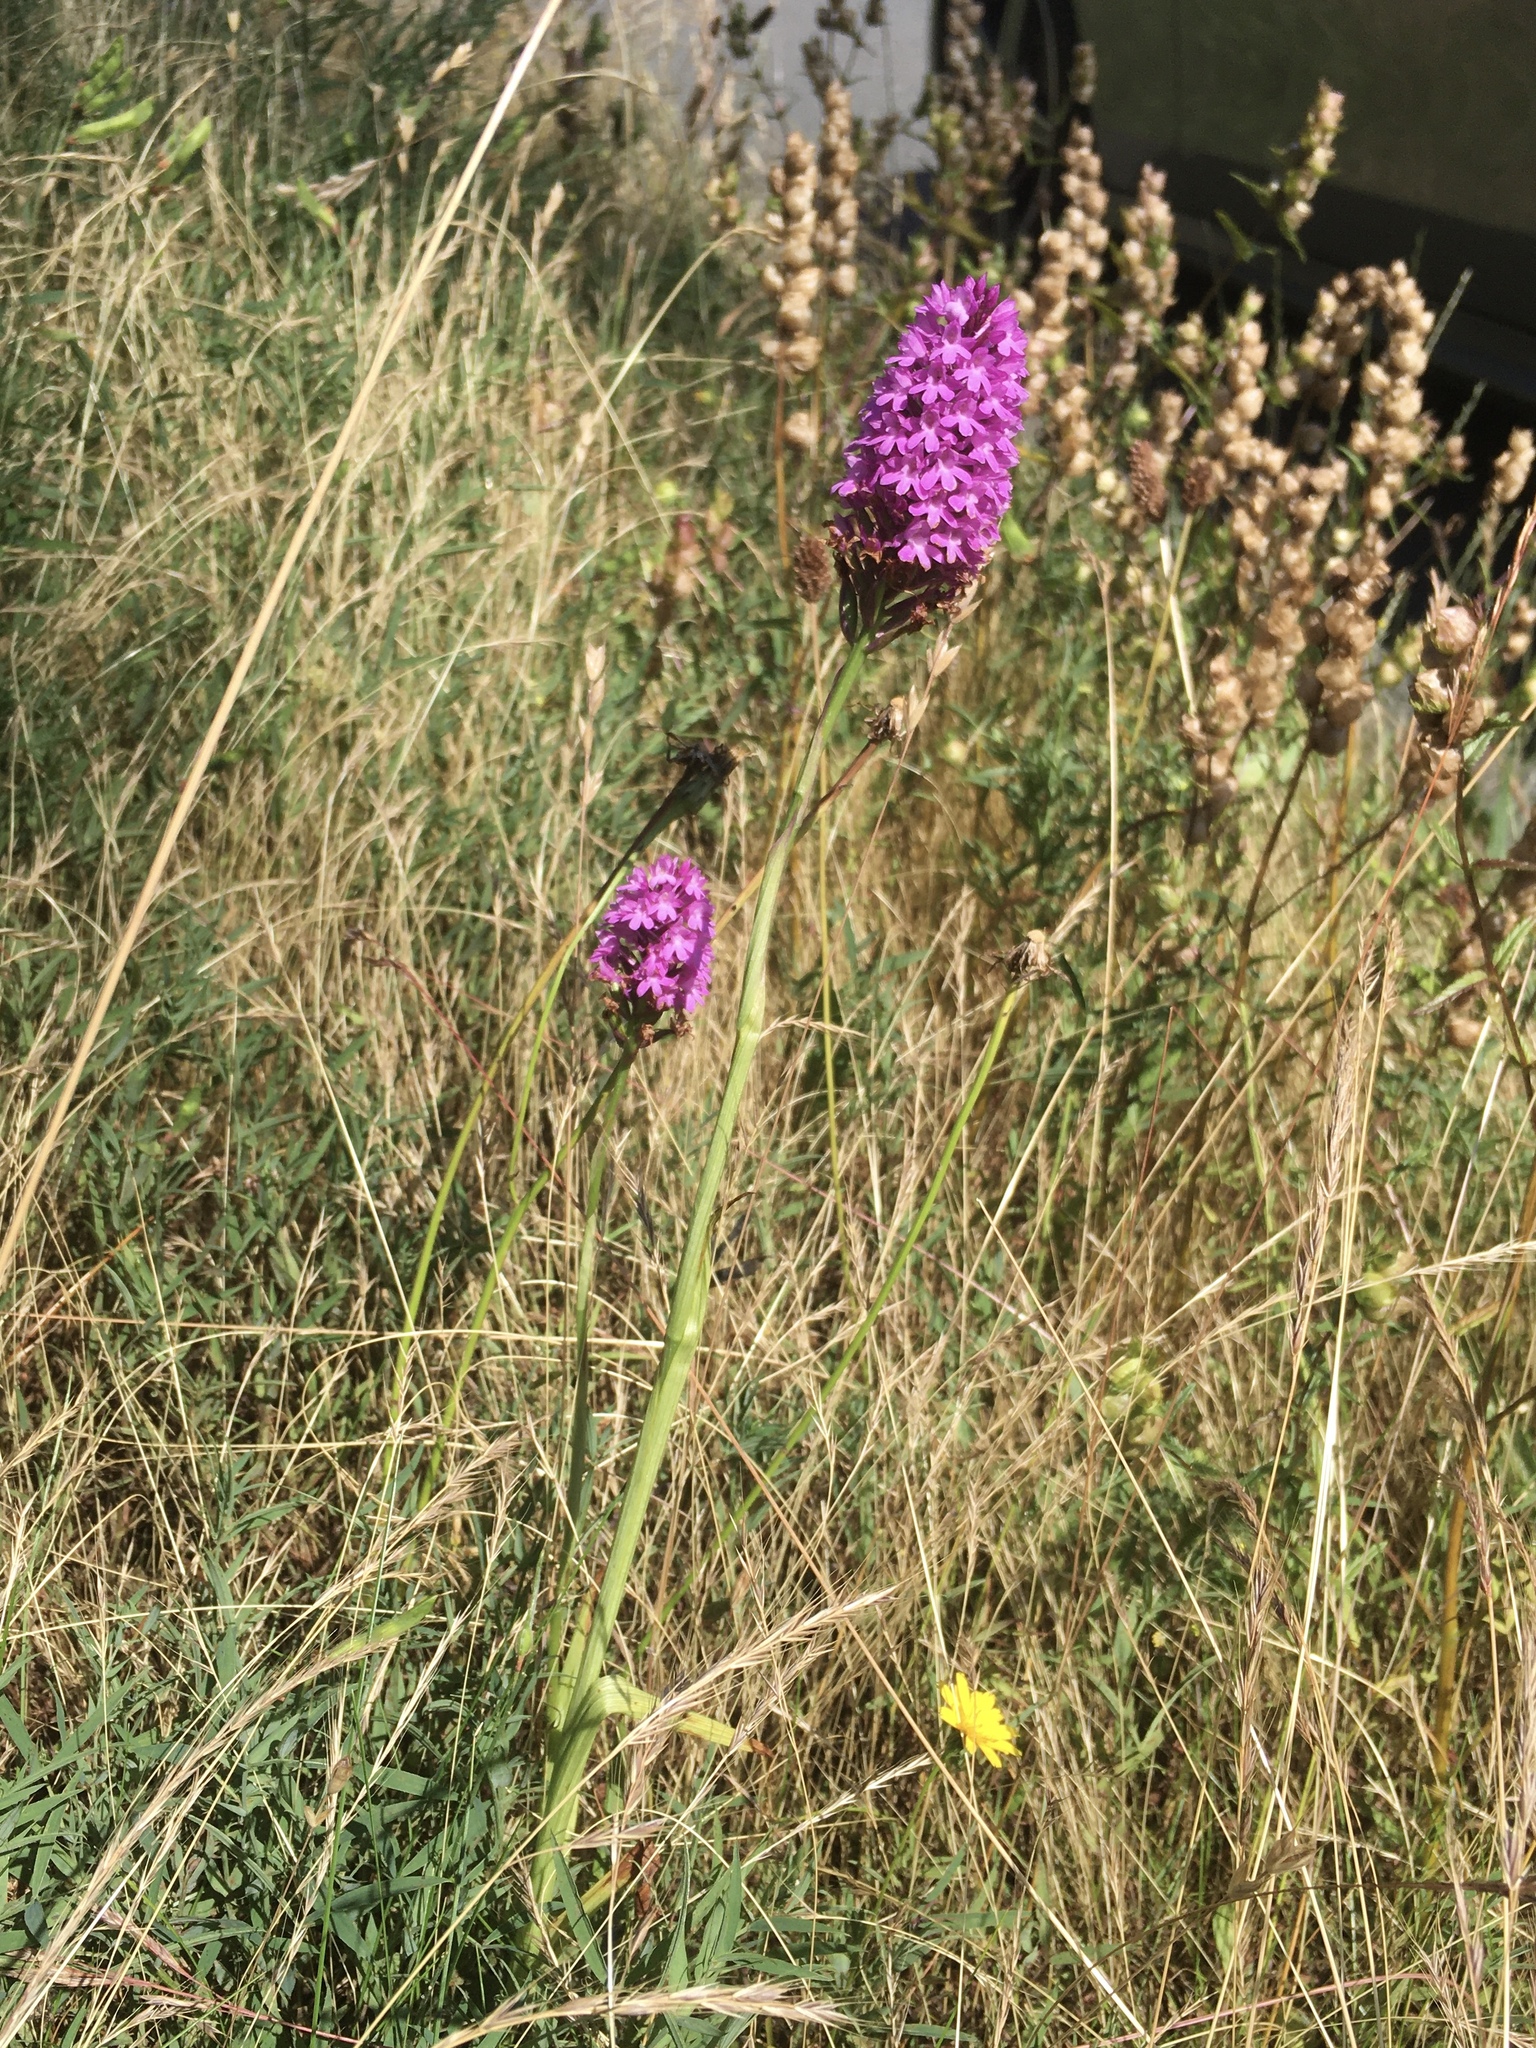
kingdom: Plantae
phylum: Tracheophyta
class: Liliopsida
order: Asparagales
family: Orchidaceae
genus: Anacamptis
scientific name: Anacamptis pyramidalis
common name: Pyramidal orchid
